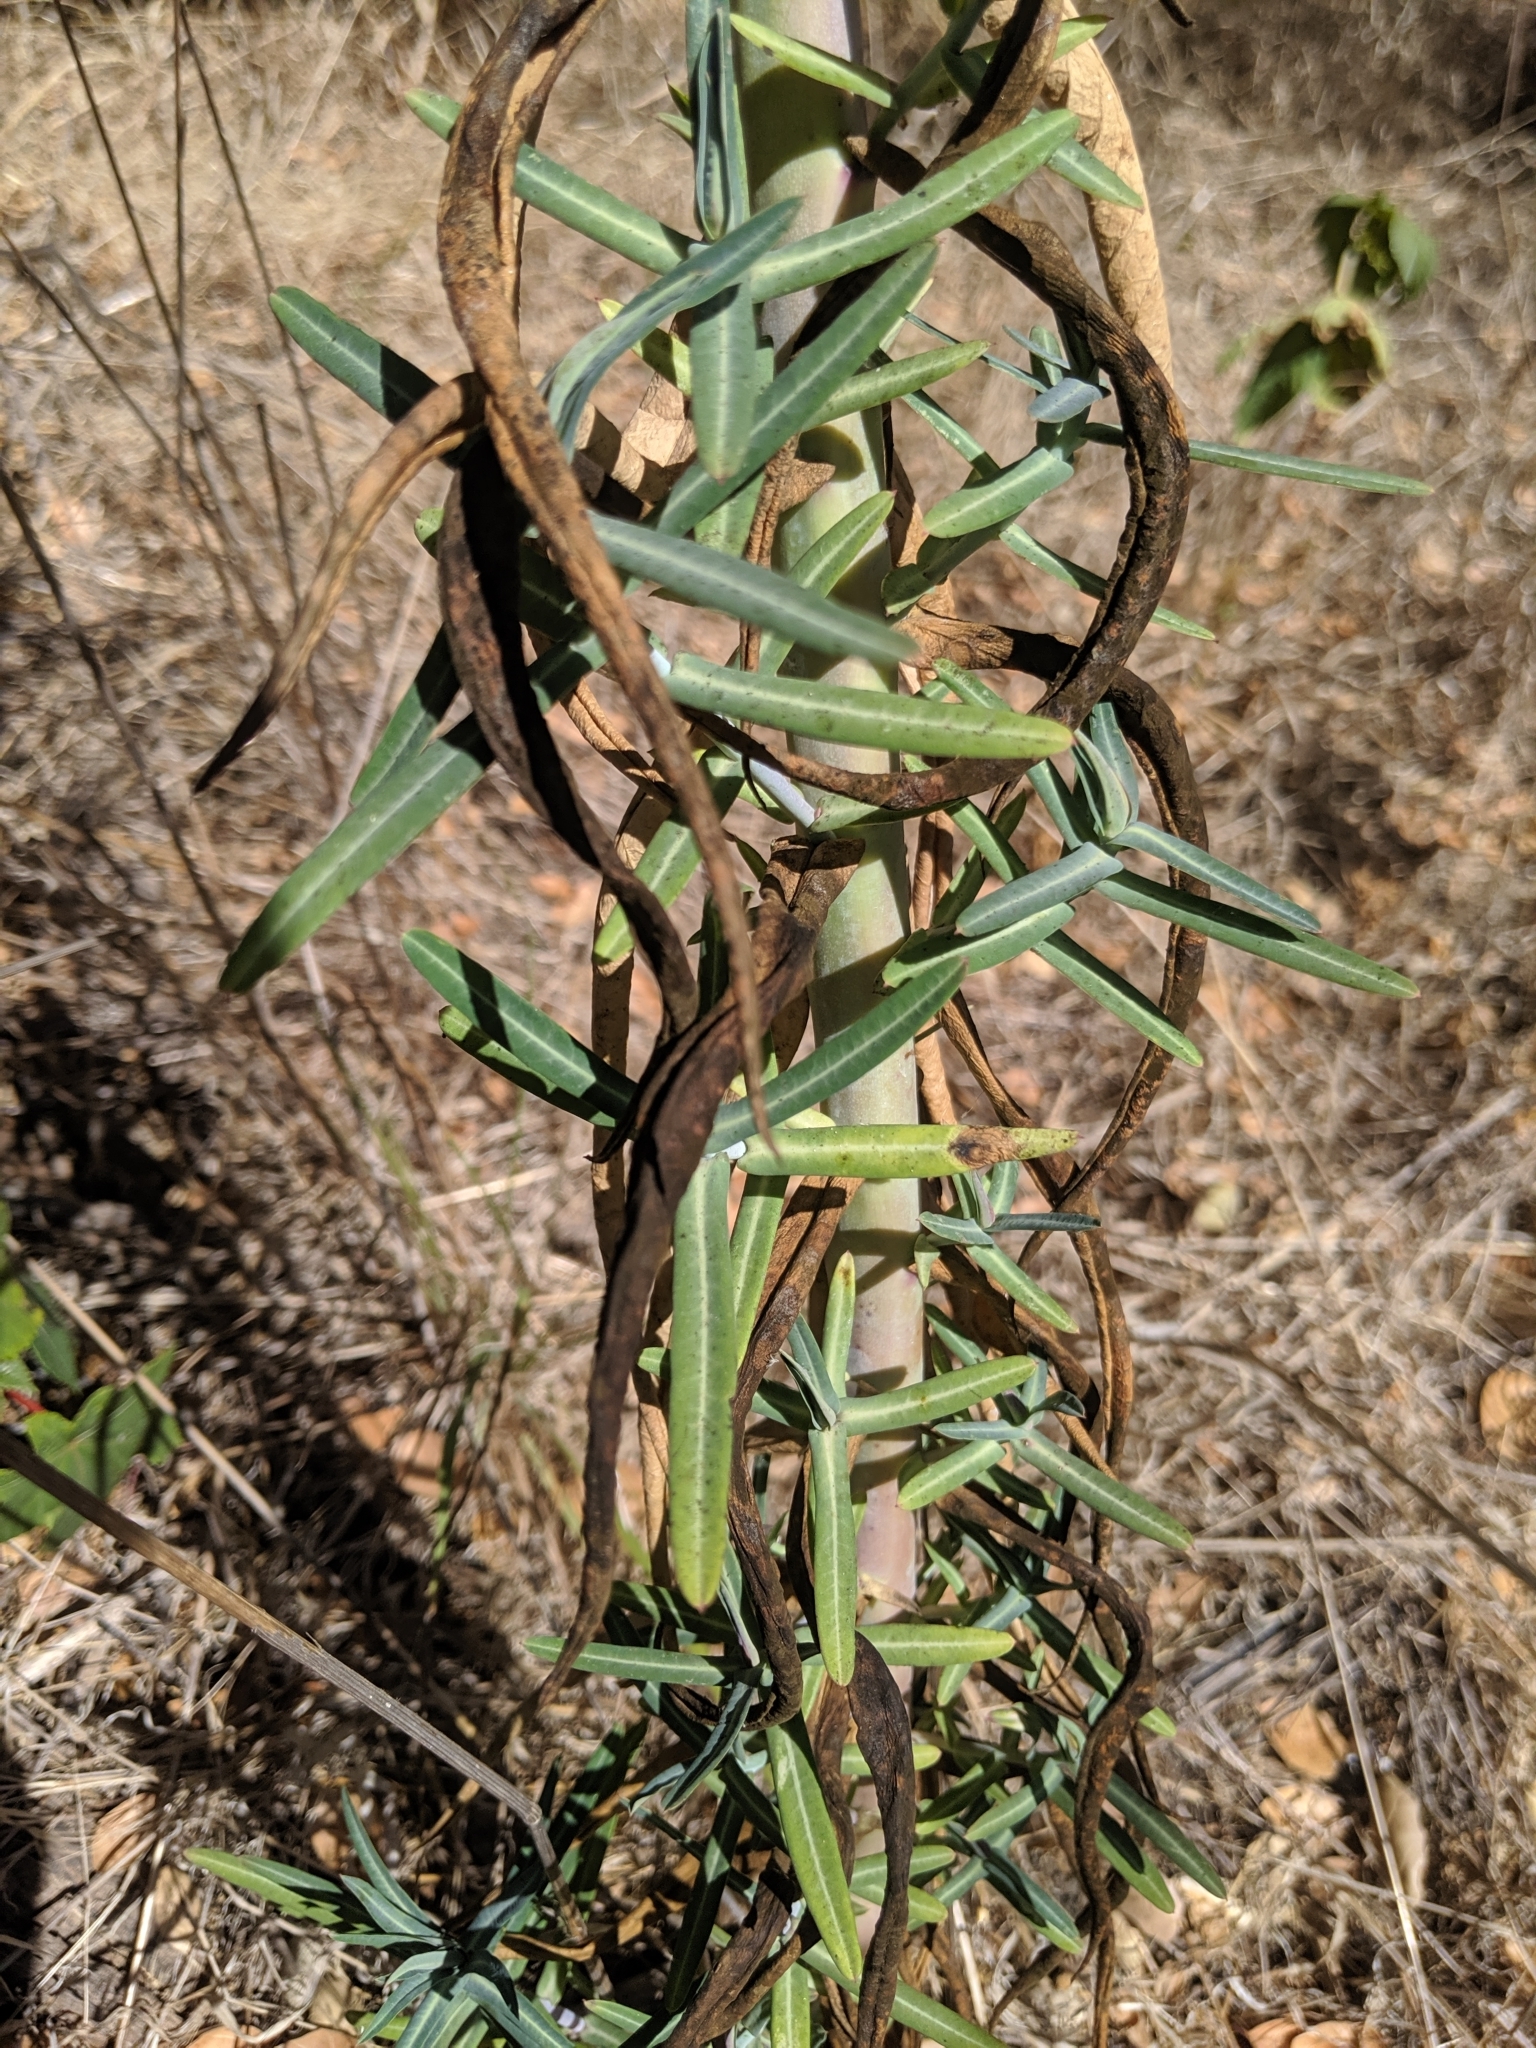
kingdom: Plantae
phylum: Tracheophyta
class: Magnoliopsida
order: Malpighiales
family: Euphorbiaceae
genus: Euphorbia
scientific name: Euphorbia lathyris
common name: Caper spurge
